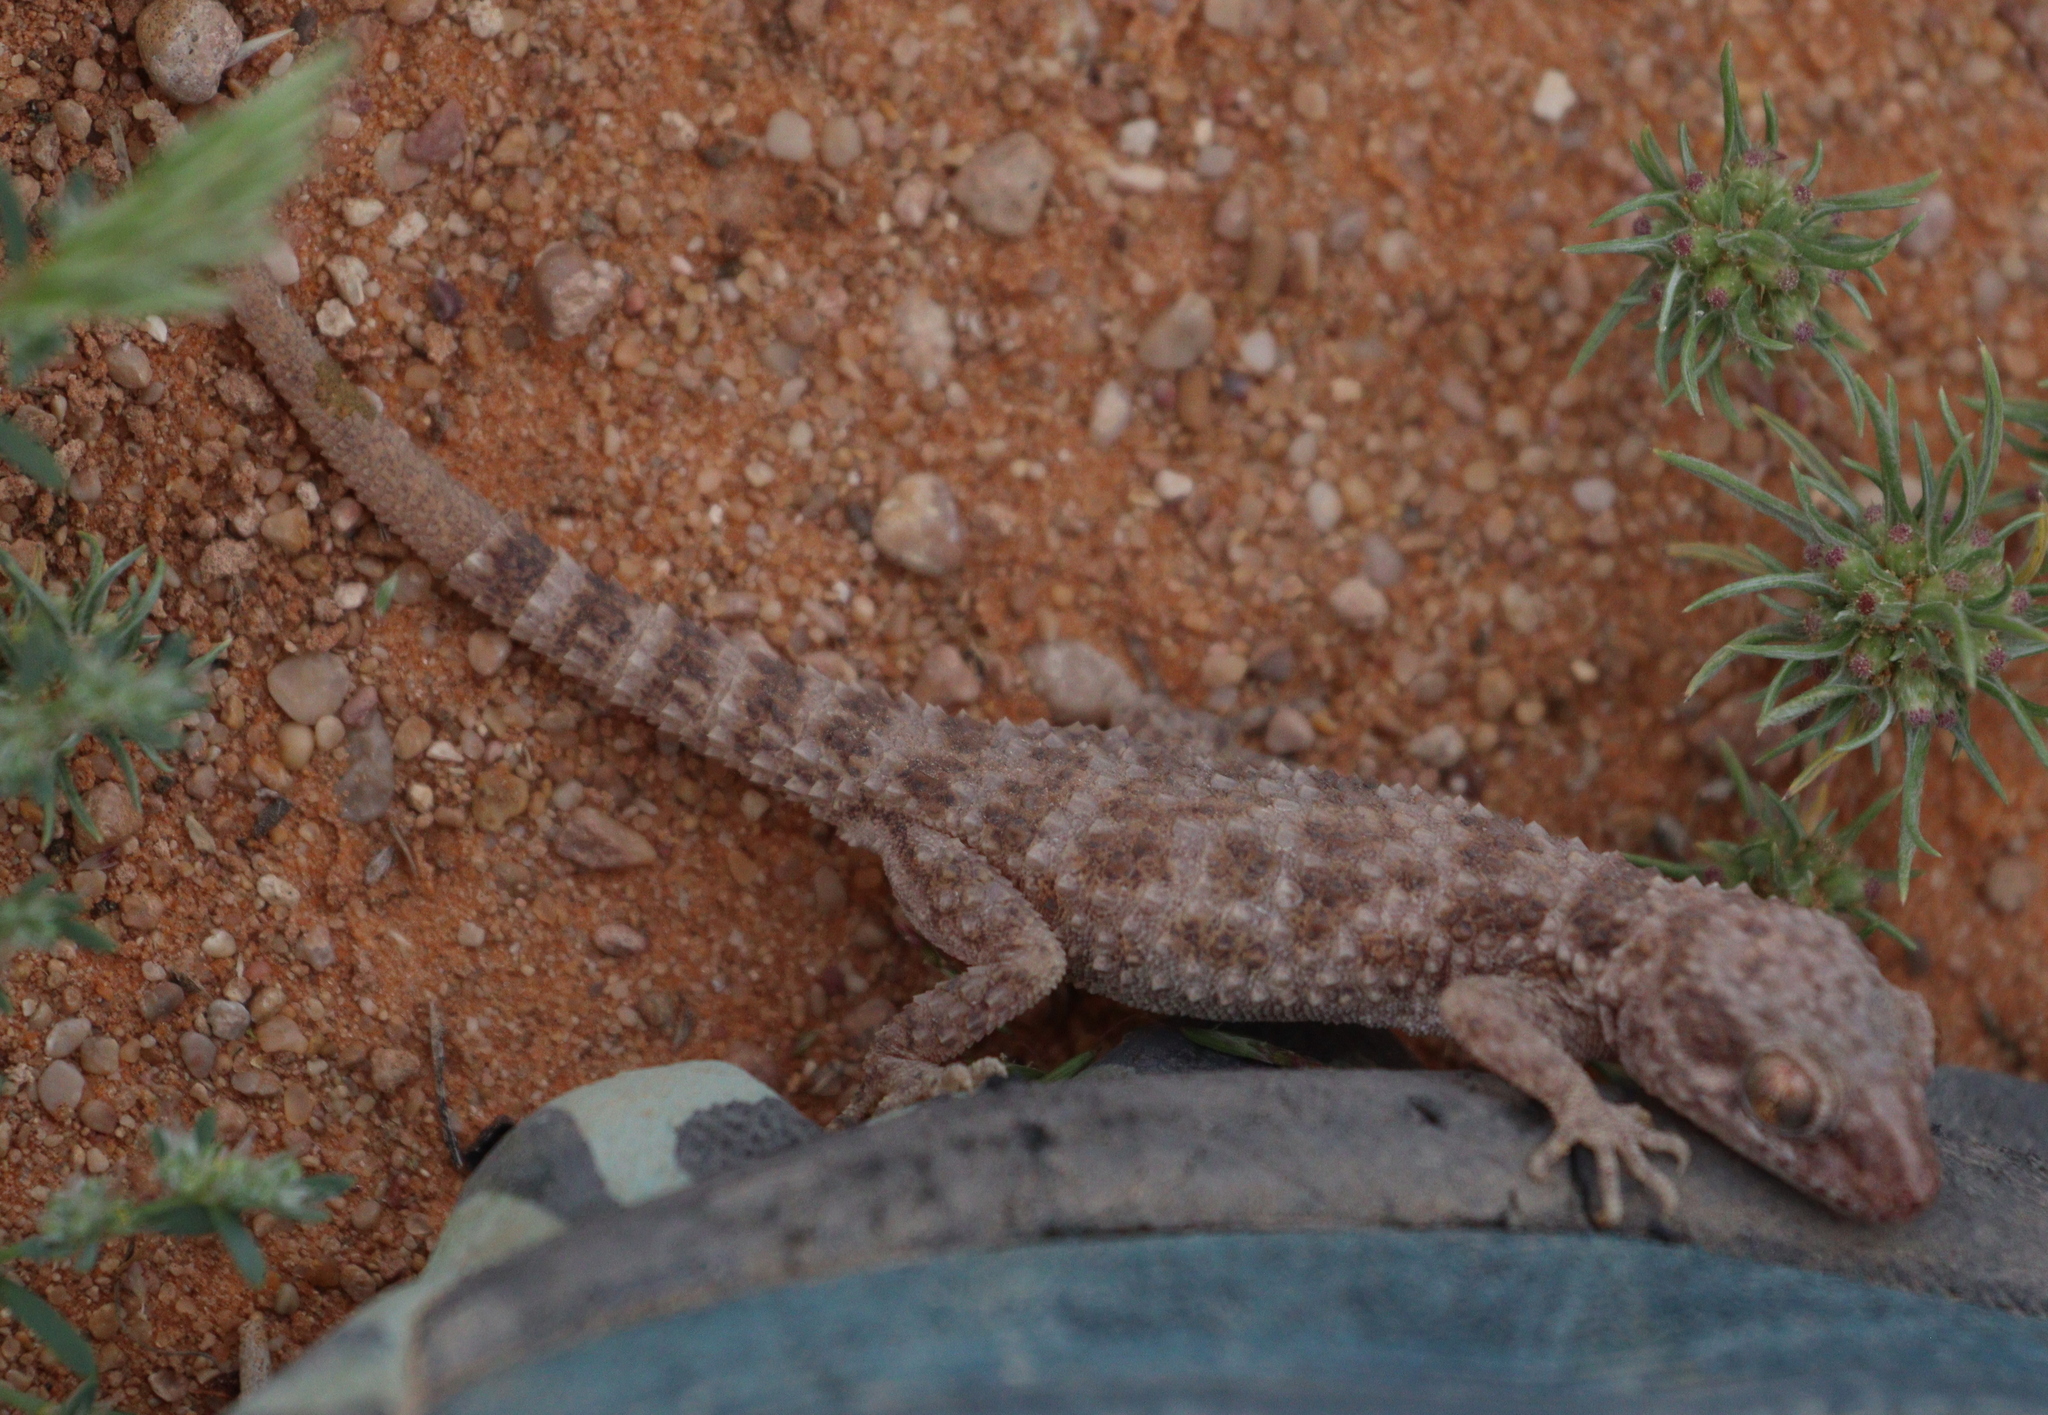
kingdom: Animalia
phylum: Chordata
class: Squamata
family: Gekkonidae
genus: Bunopus
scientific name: Bunopus tuberculatus
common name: Southern tuberculated gecko
